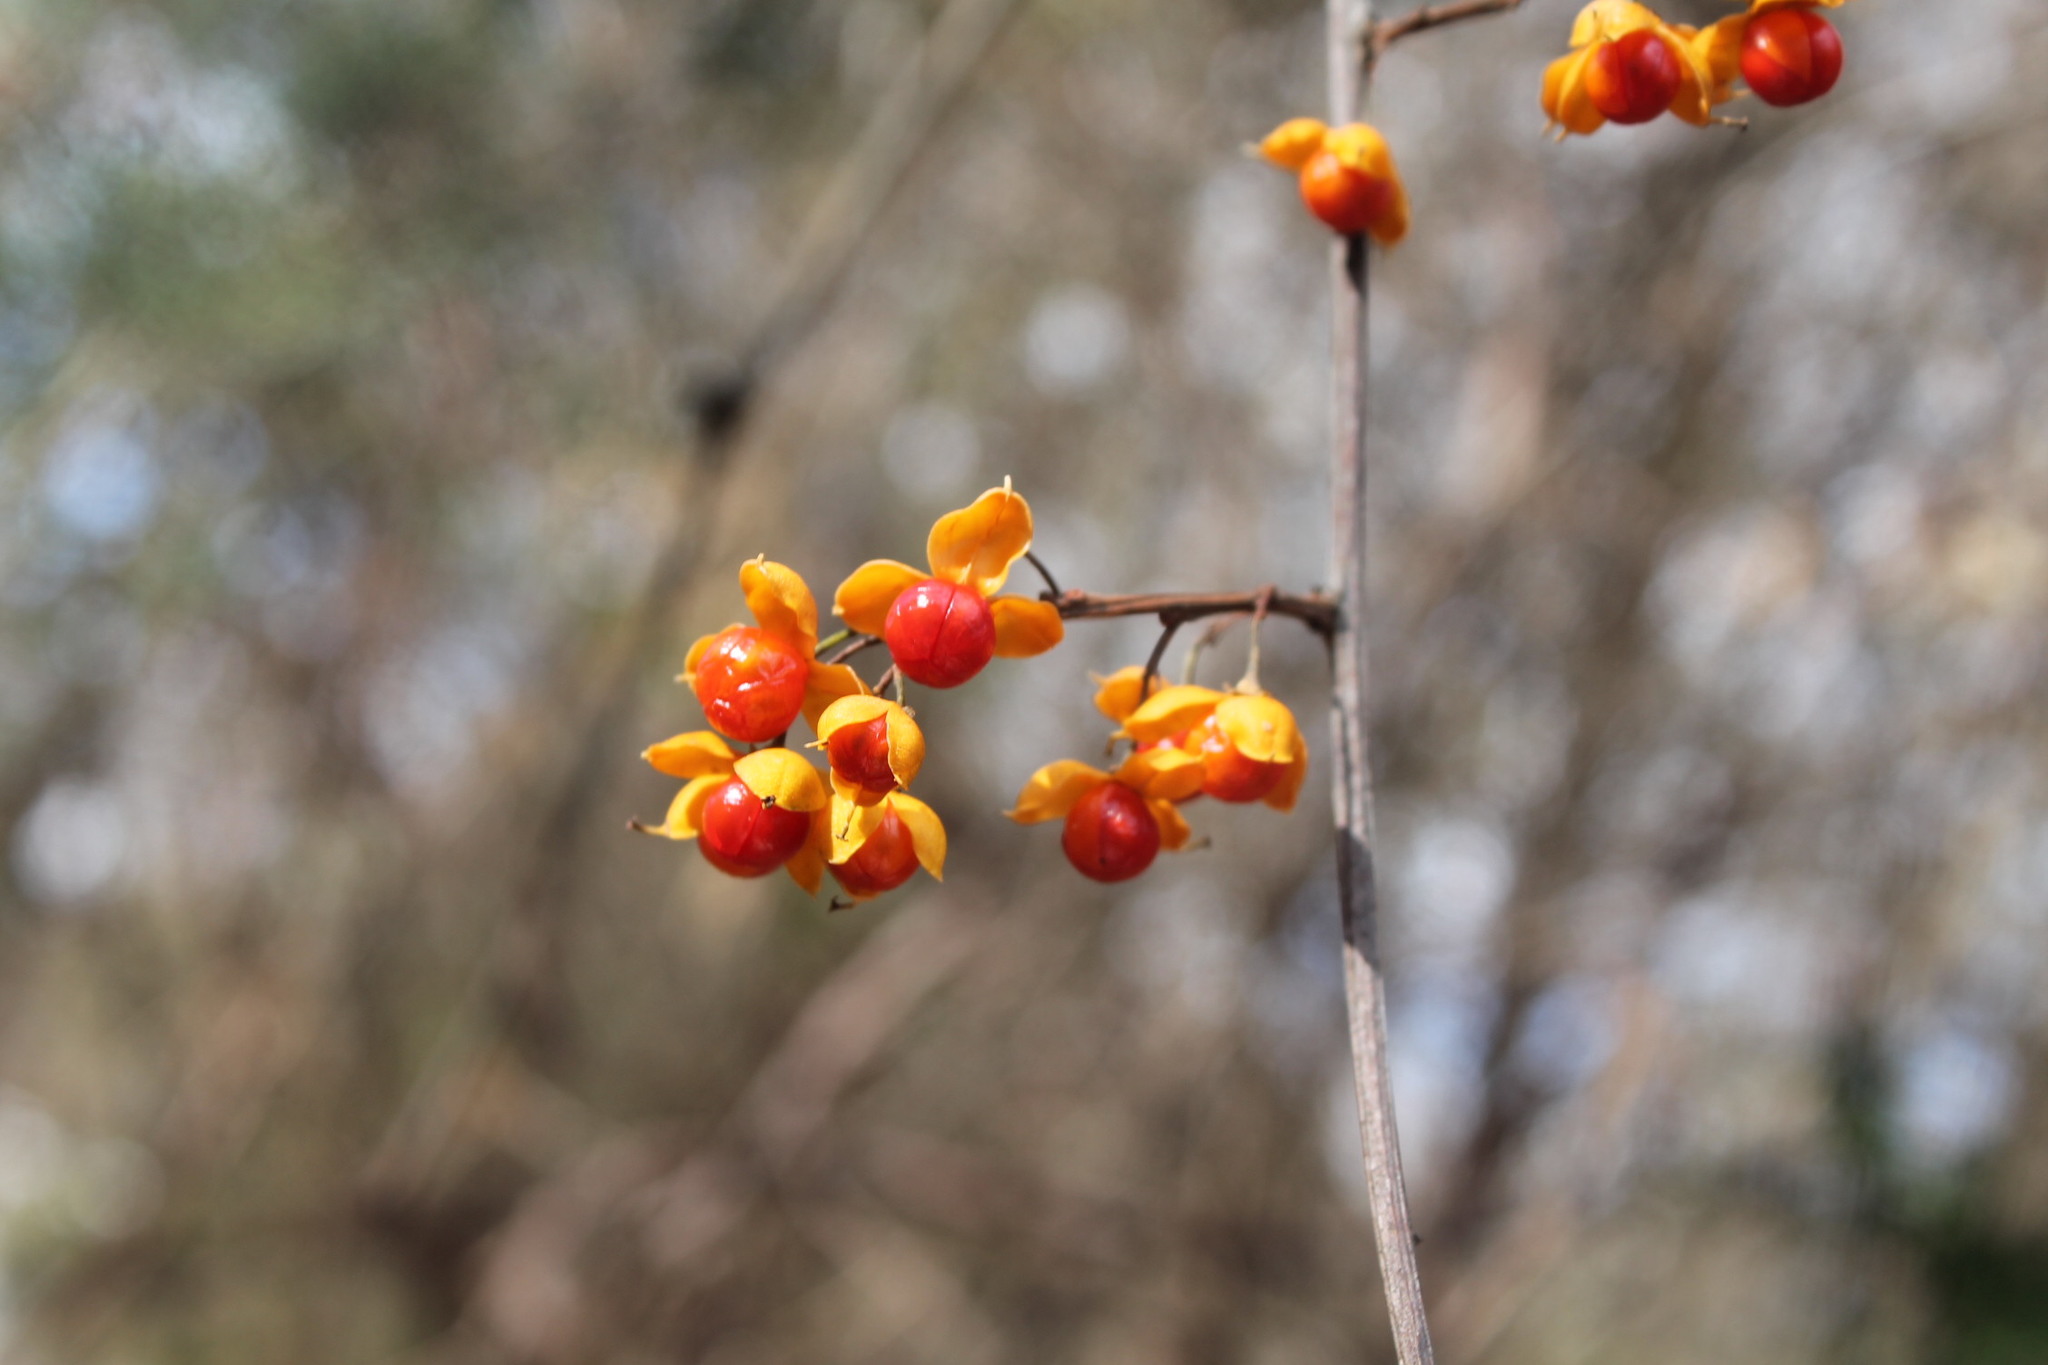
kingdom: Plantae
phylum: Tracheophyta
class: Magnoliopsida
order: Celastrales
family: Celastraceae
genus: Celastrus
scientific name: Celastrus orbiculatus
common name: Oriental bittersweet
